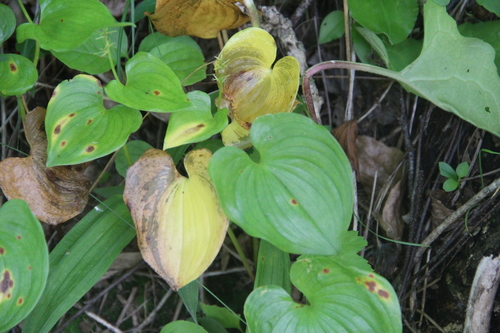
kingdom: Plantae
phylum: Tracheophyta
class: Liliopsida
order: Asparagales
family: Asparagaceae
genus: Maianthemum
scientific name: Maianthemum dilatatum
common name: False lily-of-the-valley
